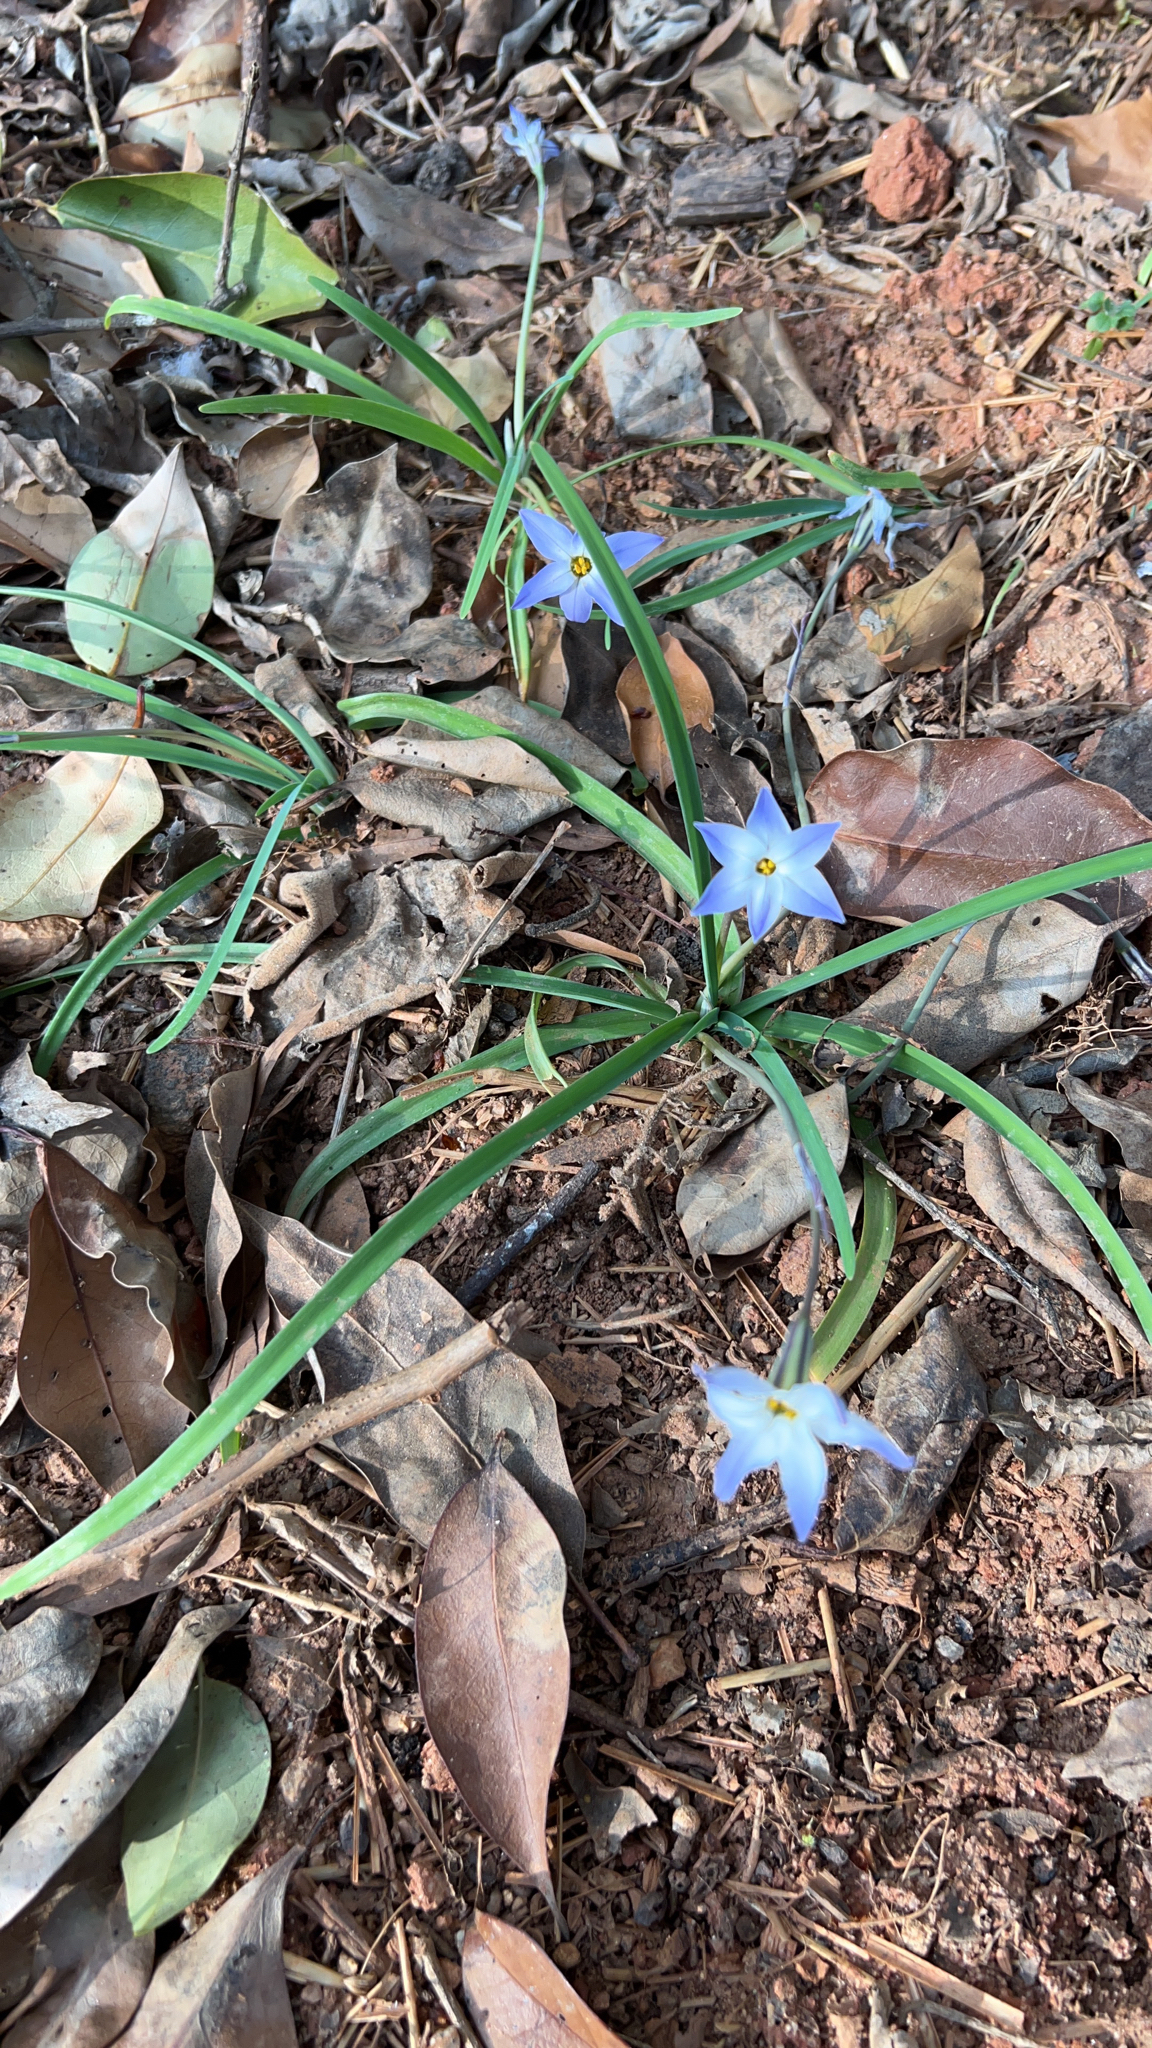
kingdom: Plantae
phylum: Tracheophyta
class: Liliopsida
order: Asparagales
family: Amaryllidaceae
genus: Ipheion
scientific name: Ipheion uniflorum
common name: Spring starflower
